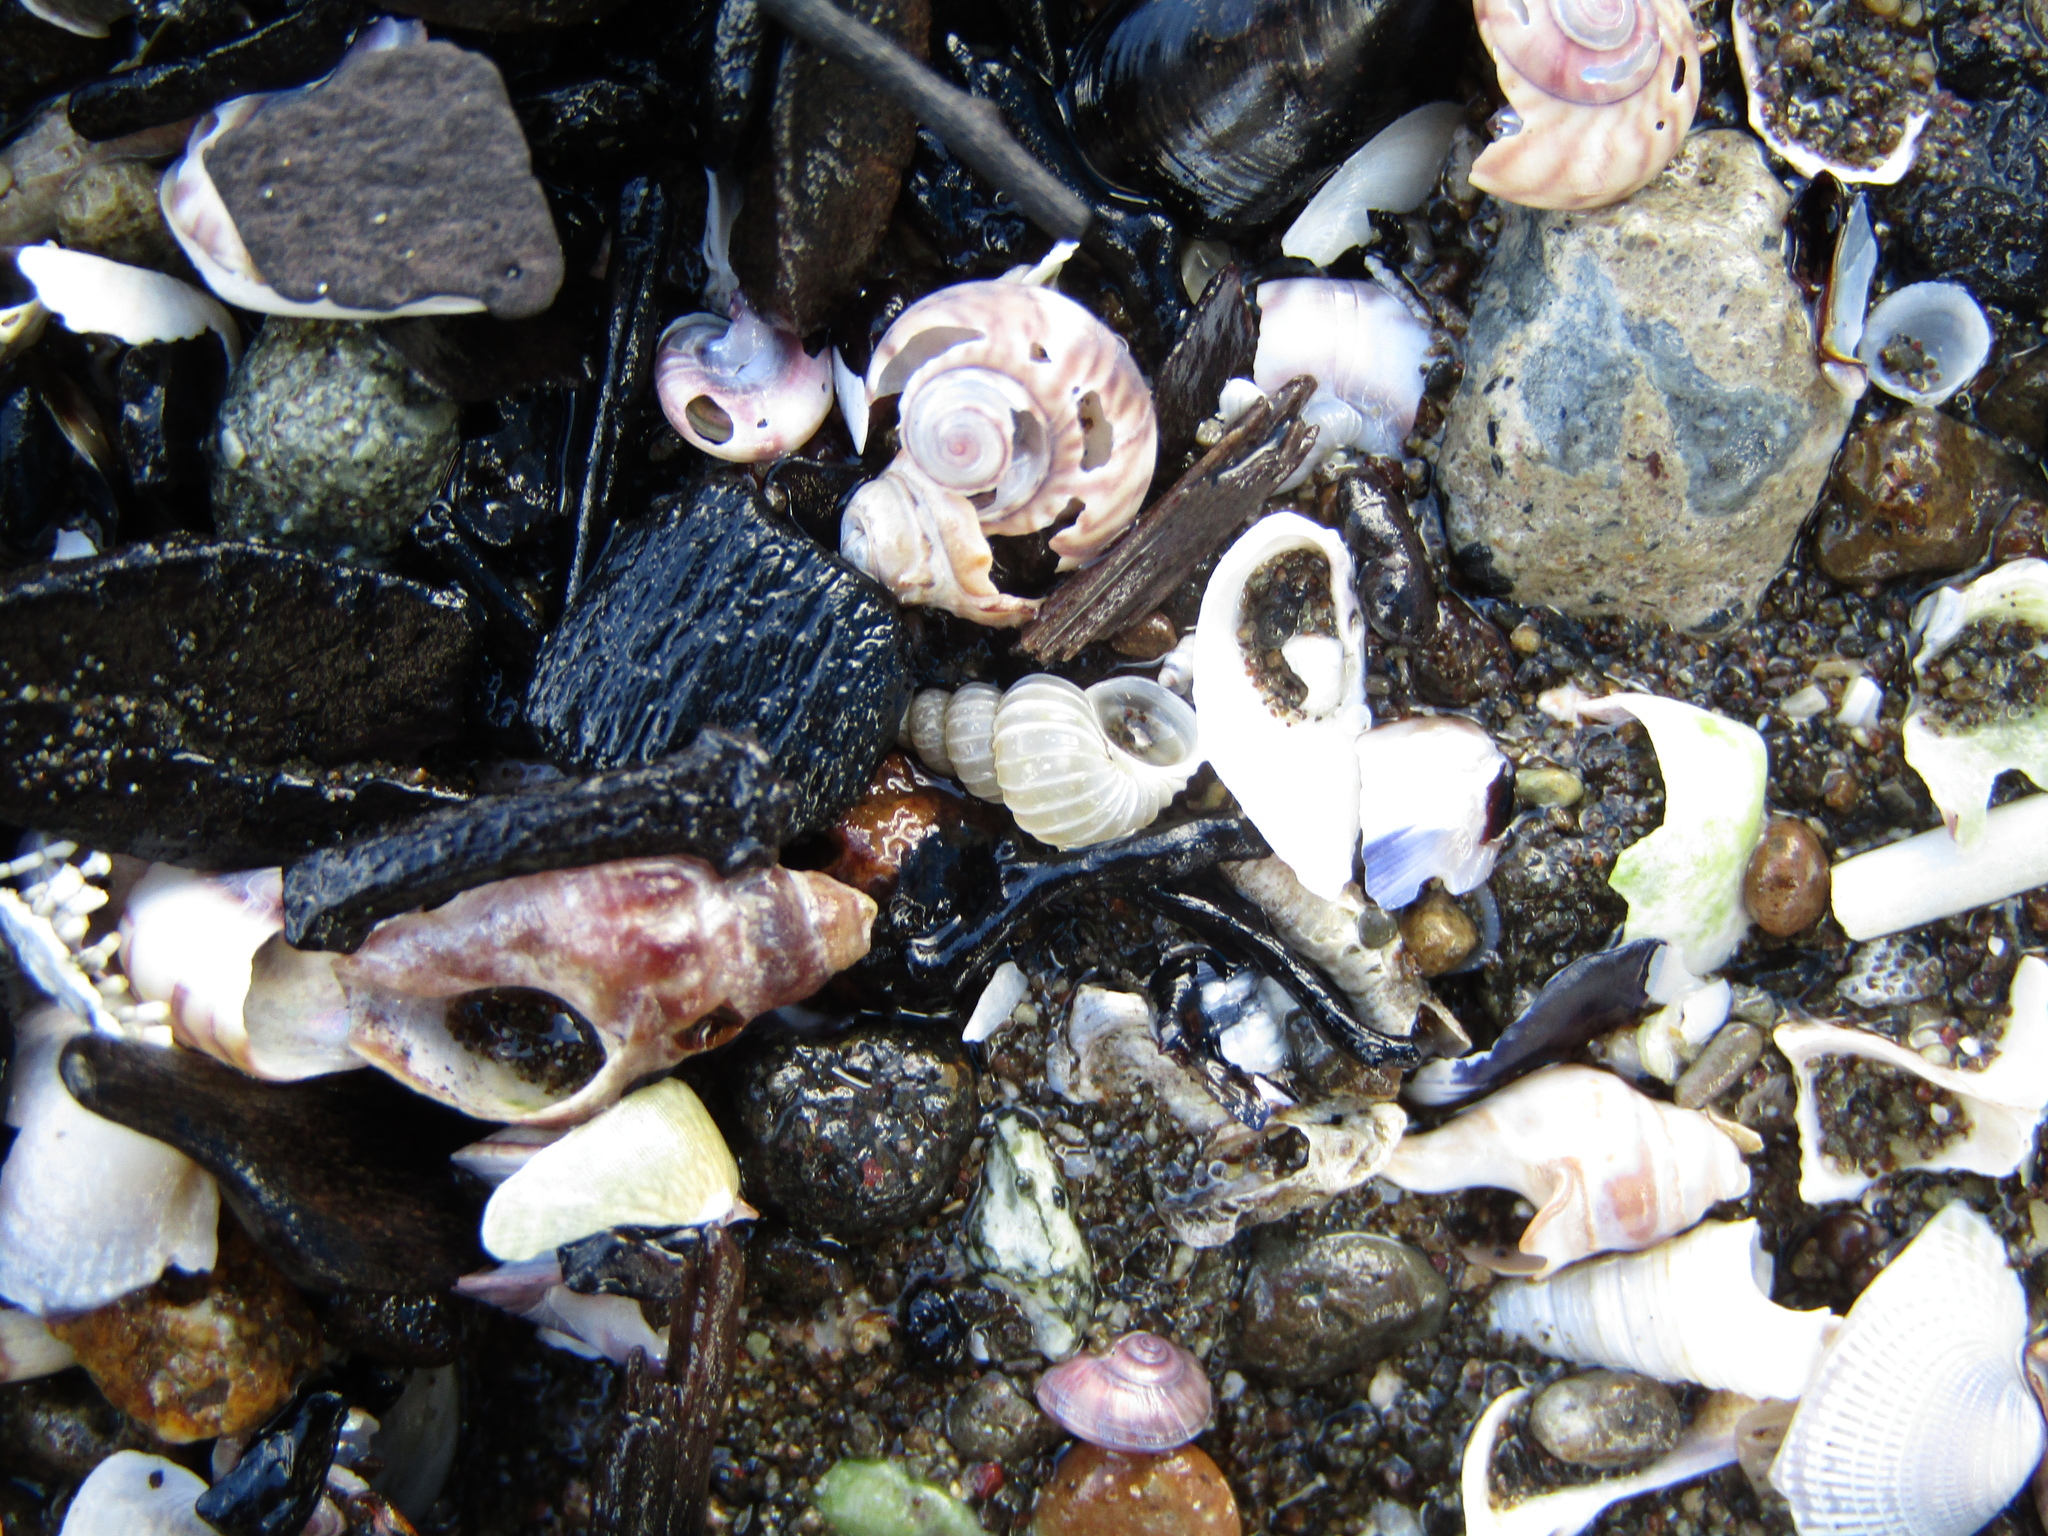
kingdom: Animalia
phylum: Mollusca
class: Gastropoda
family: Epitoniidae
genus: Epitonium
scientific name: Epitonium tenellum
